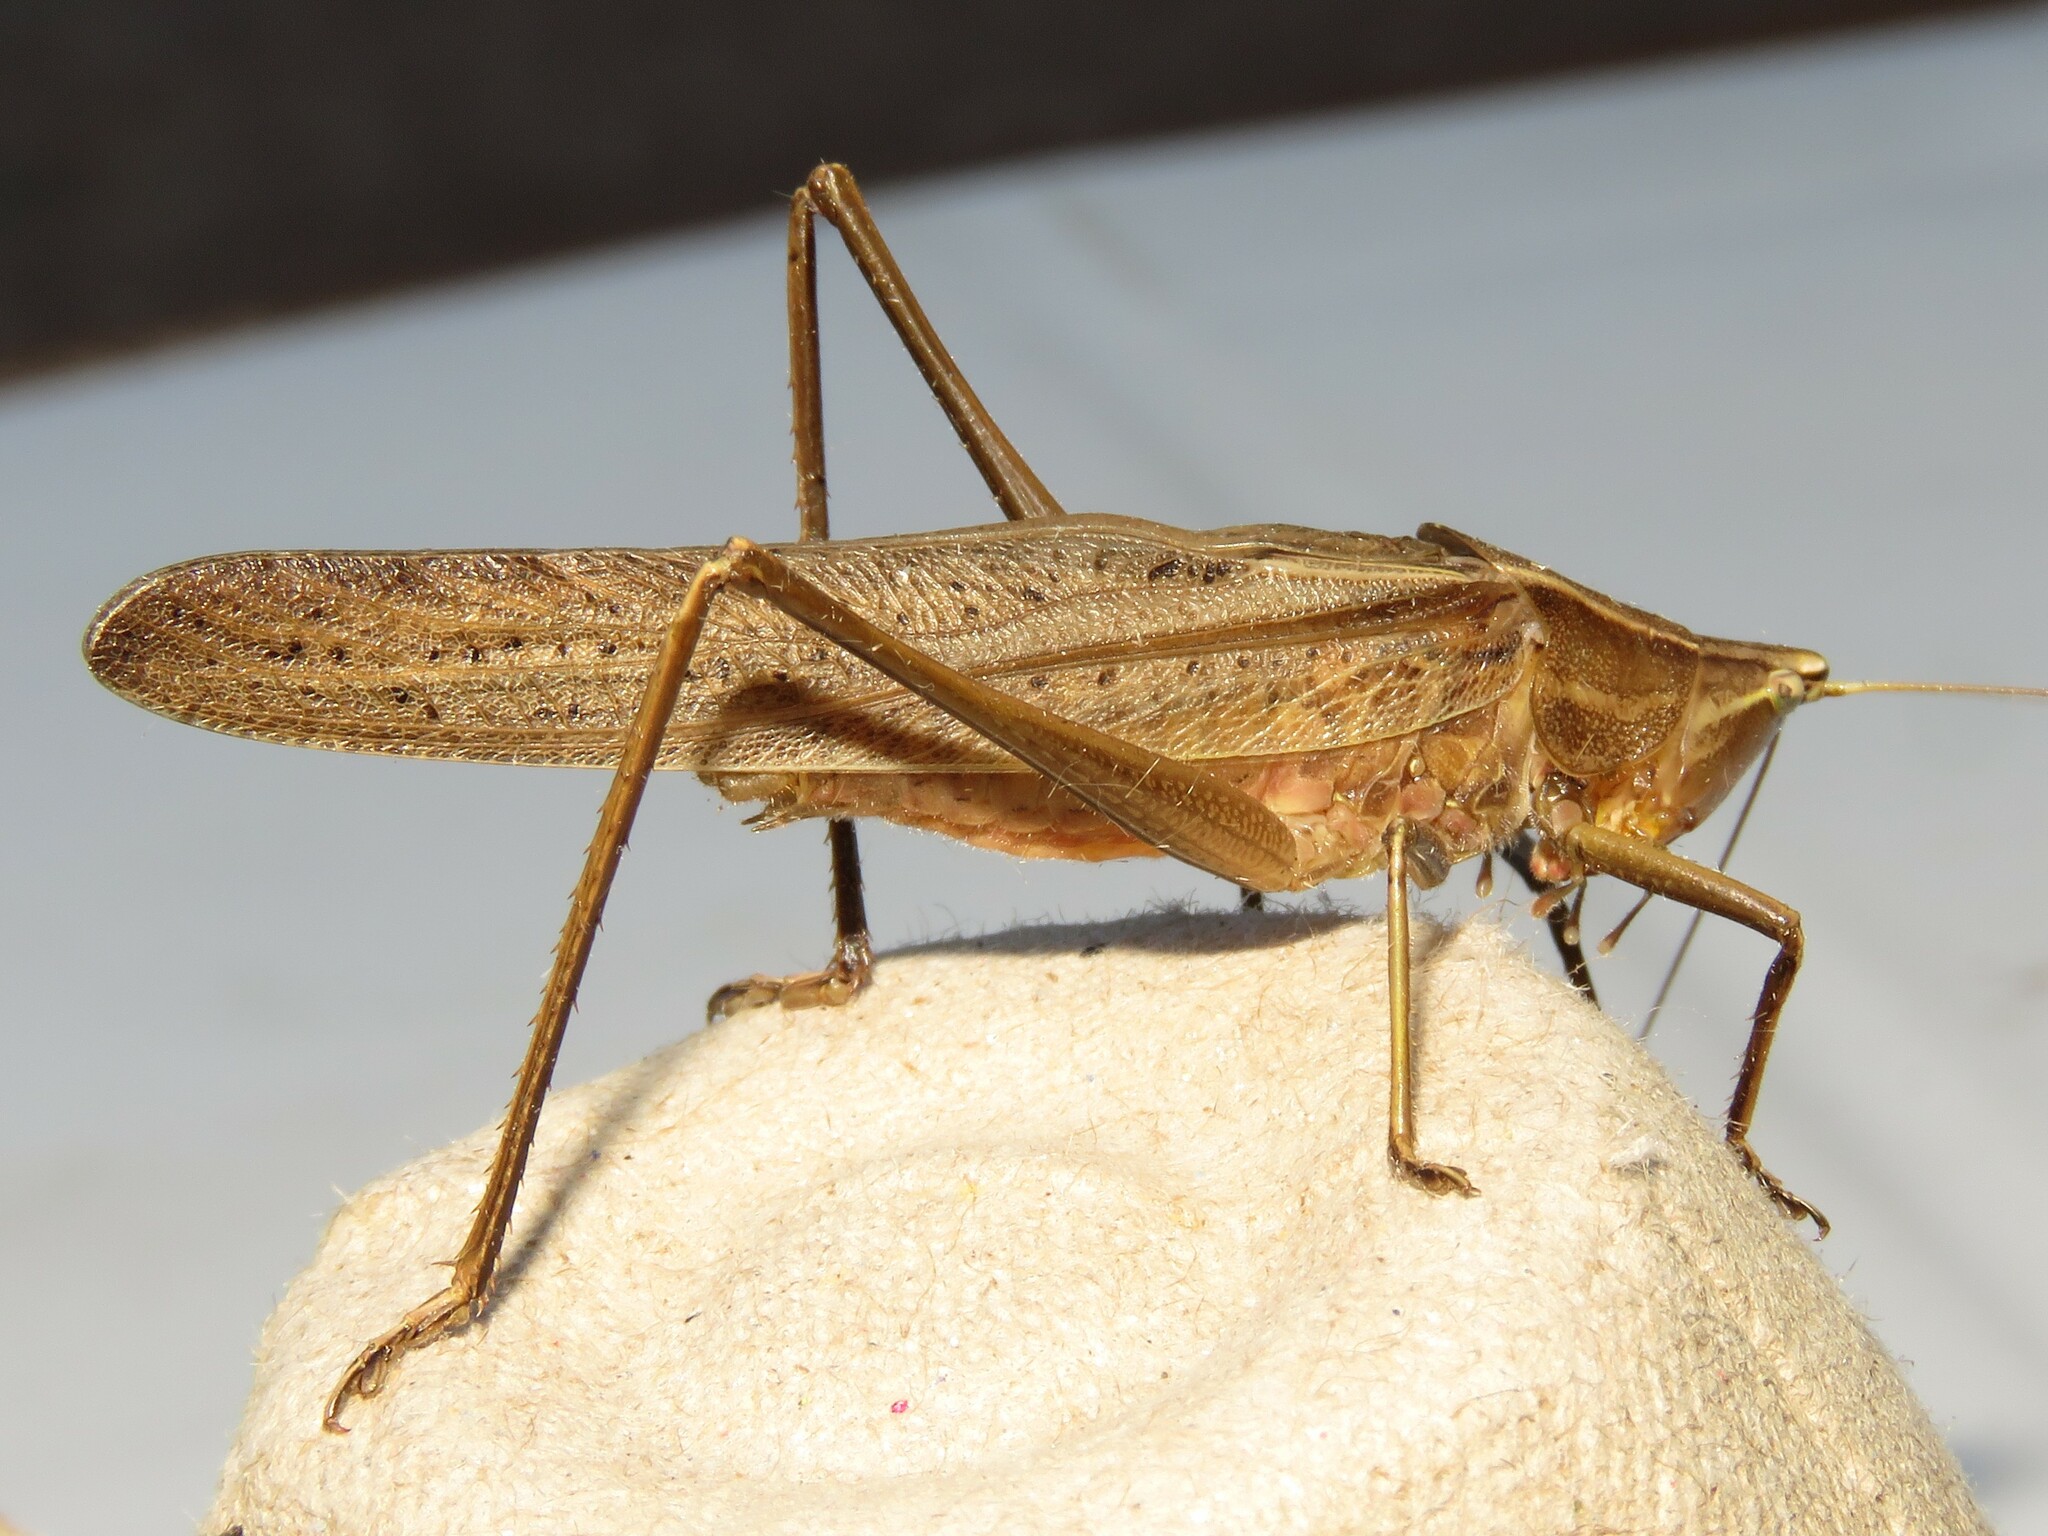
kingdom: Animalia
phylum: Arthropoda
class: Insecta
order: Orthoptera
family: Tettigoniidae
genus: Neoconocephalus
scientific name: Neoconocephalus retusus
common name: Round-tipped conehead
